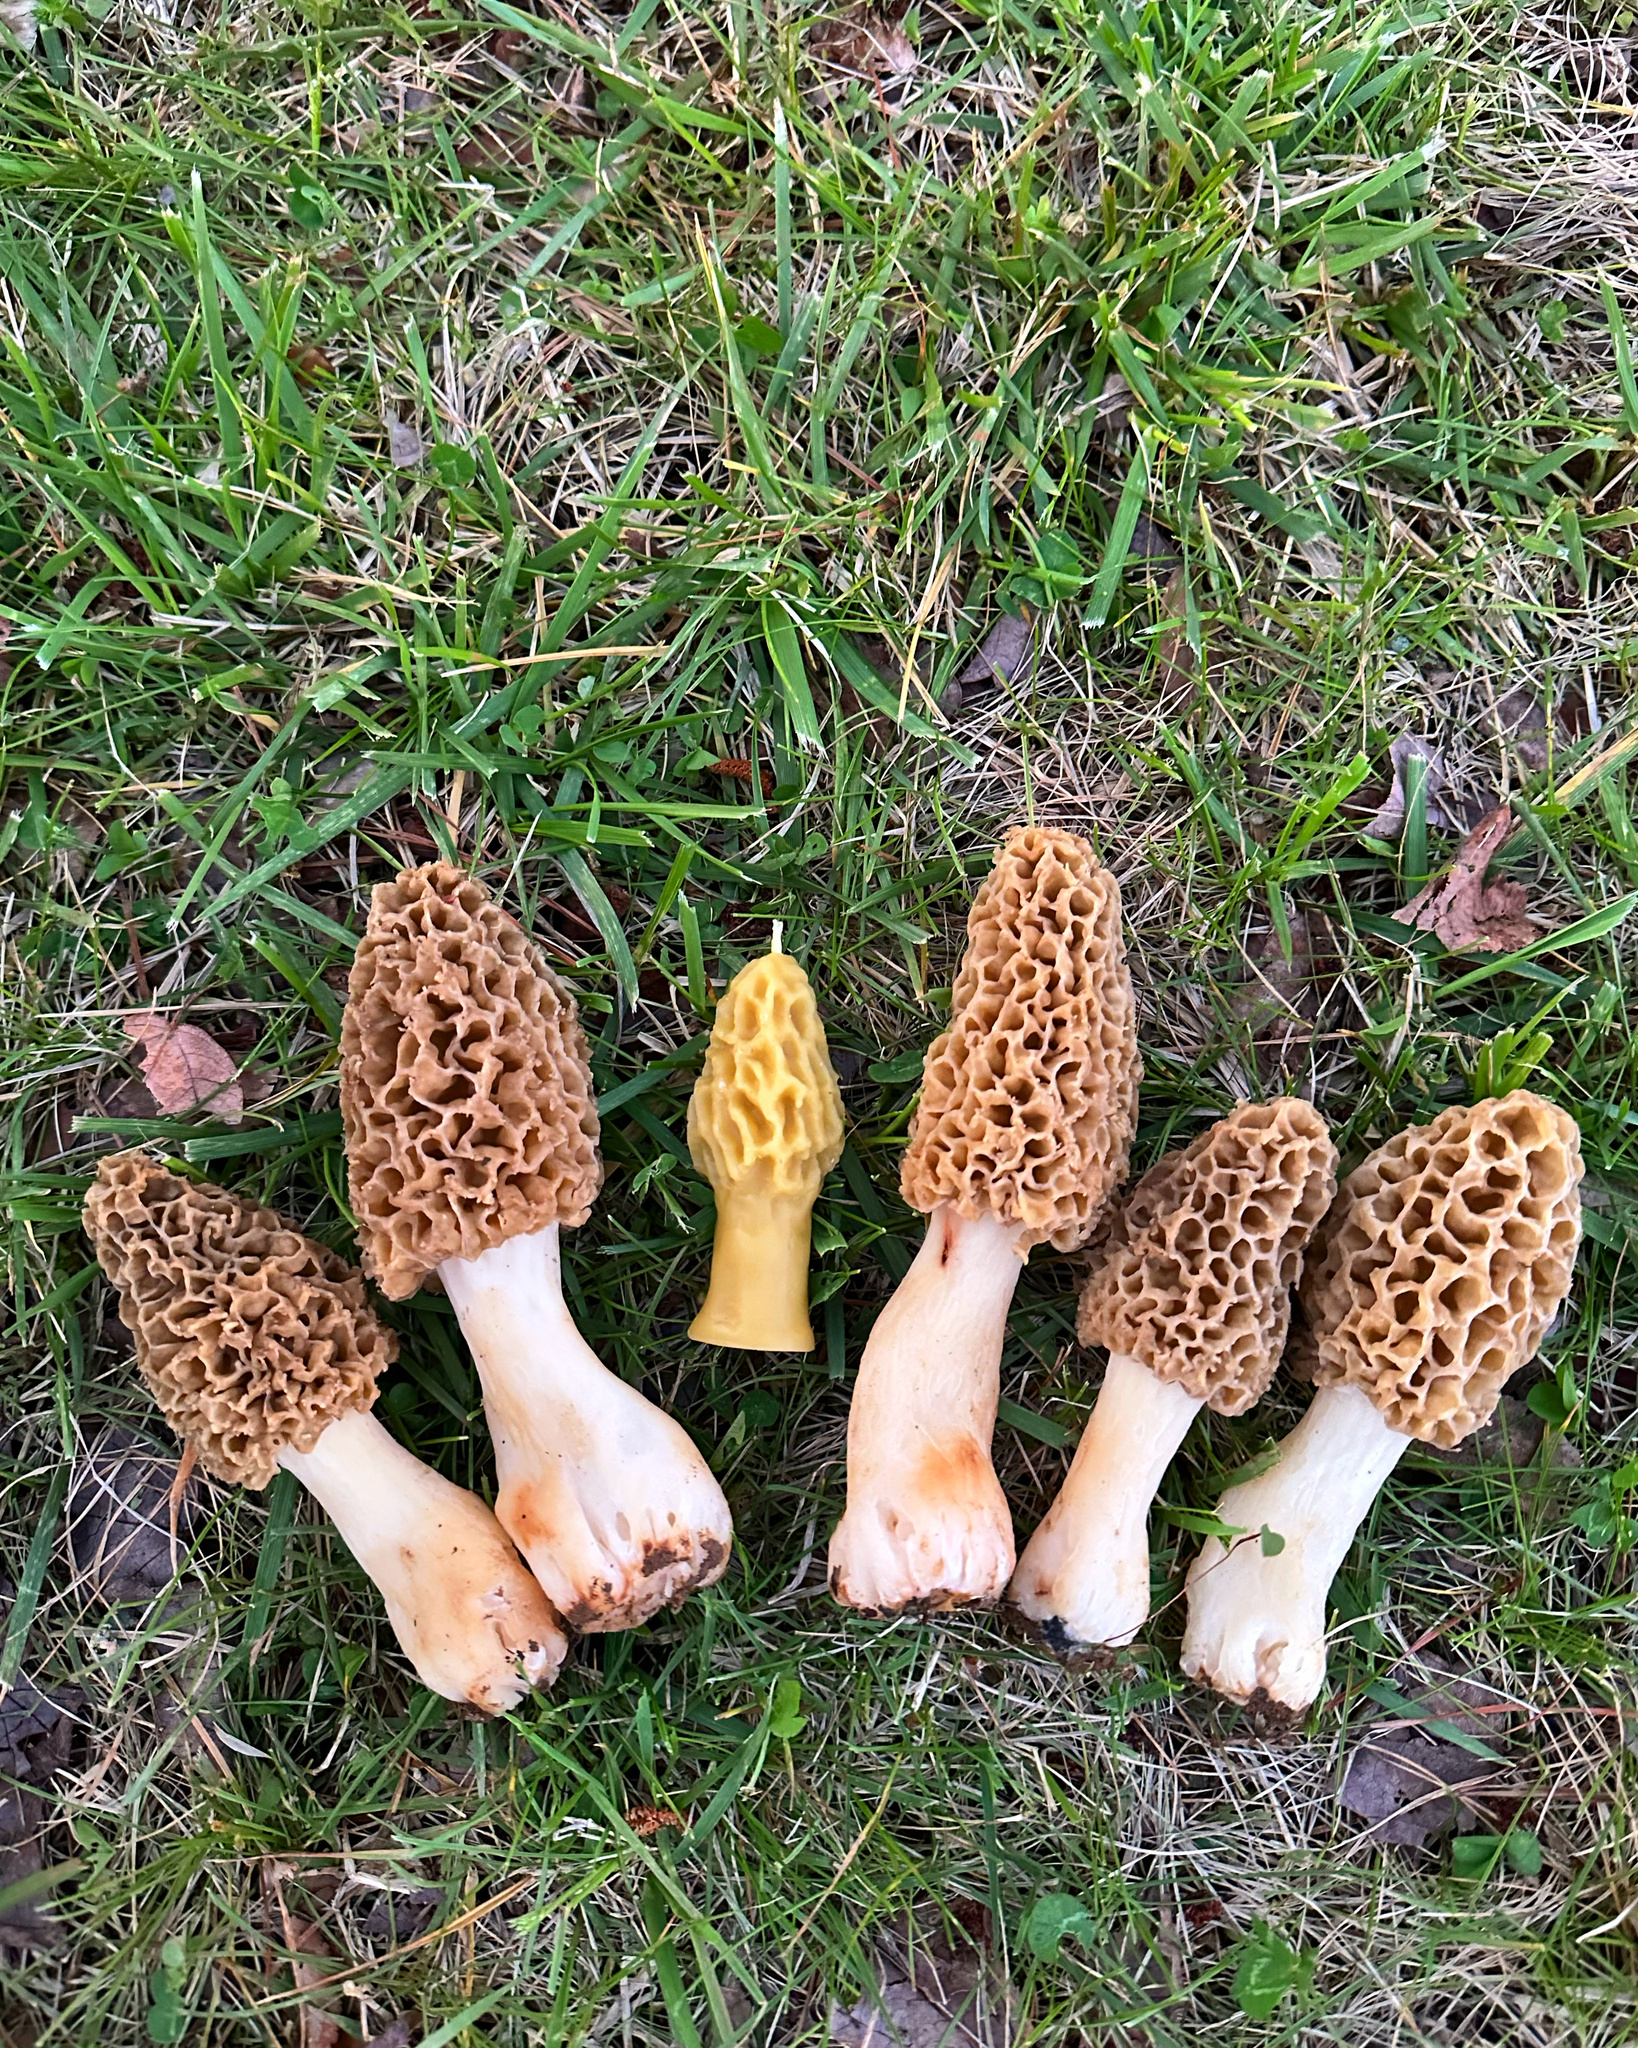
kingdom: Fungi
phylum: Ascomycota
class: Pezizomycetes
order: Pezizales
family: Morchellaceae
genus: Morchella
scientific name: Morchella americana
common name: White morel
